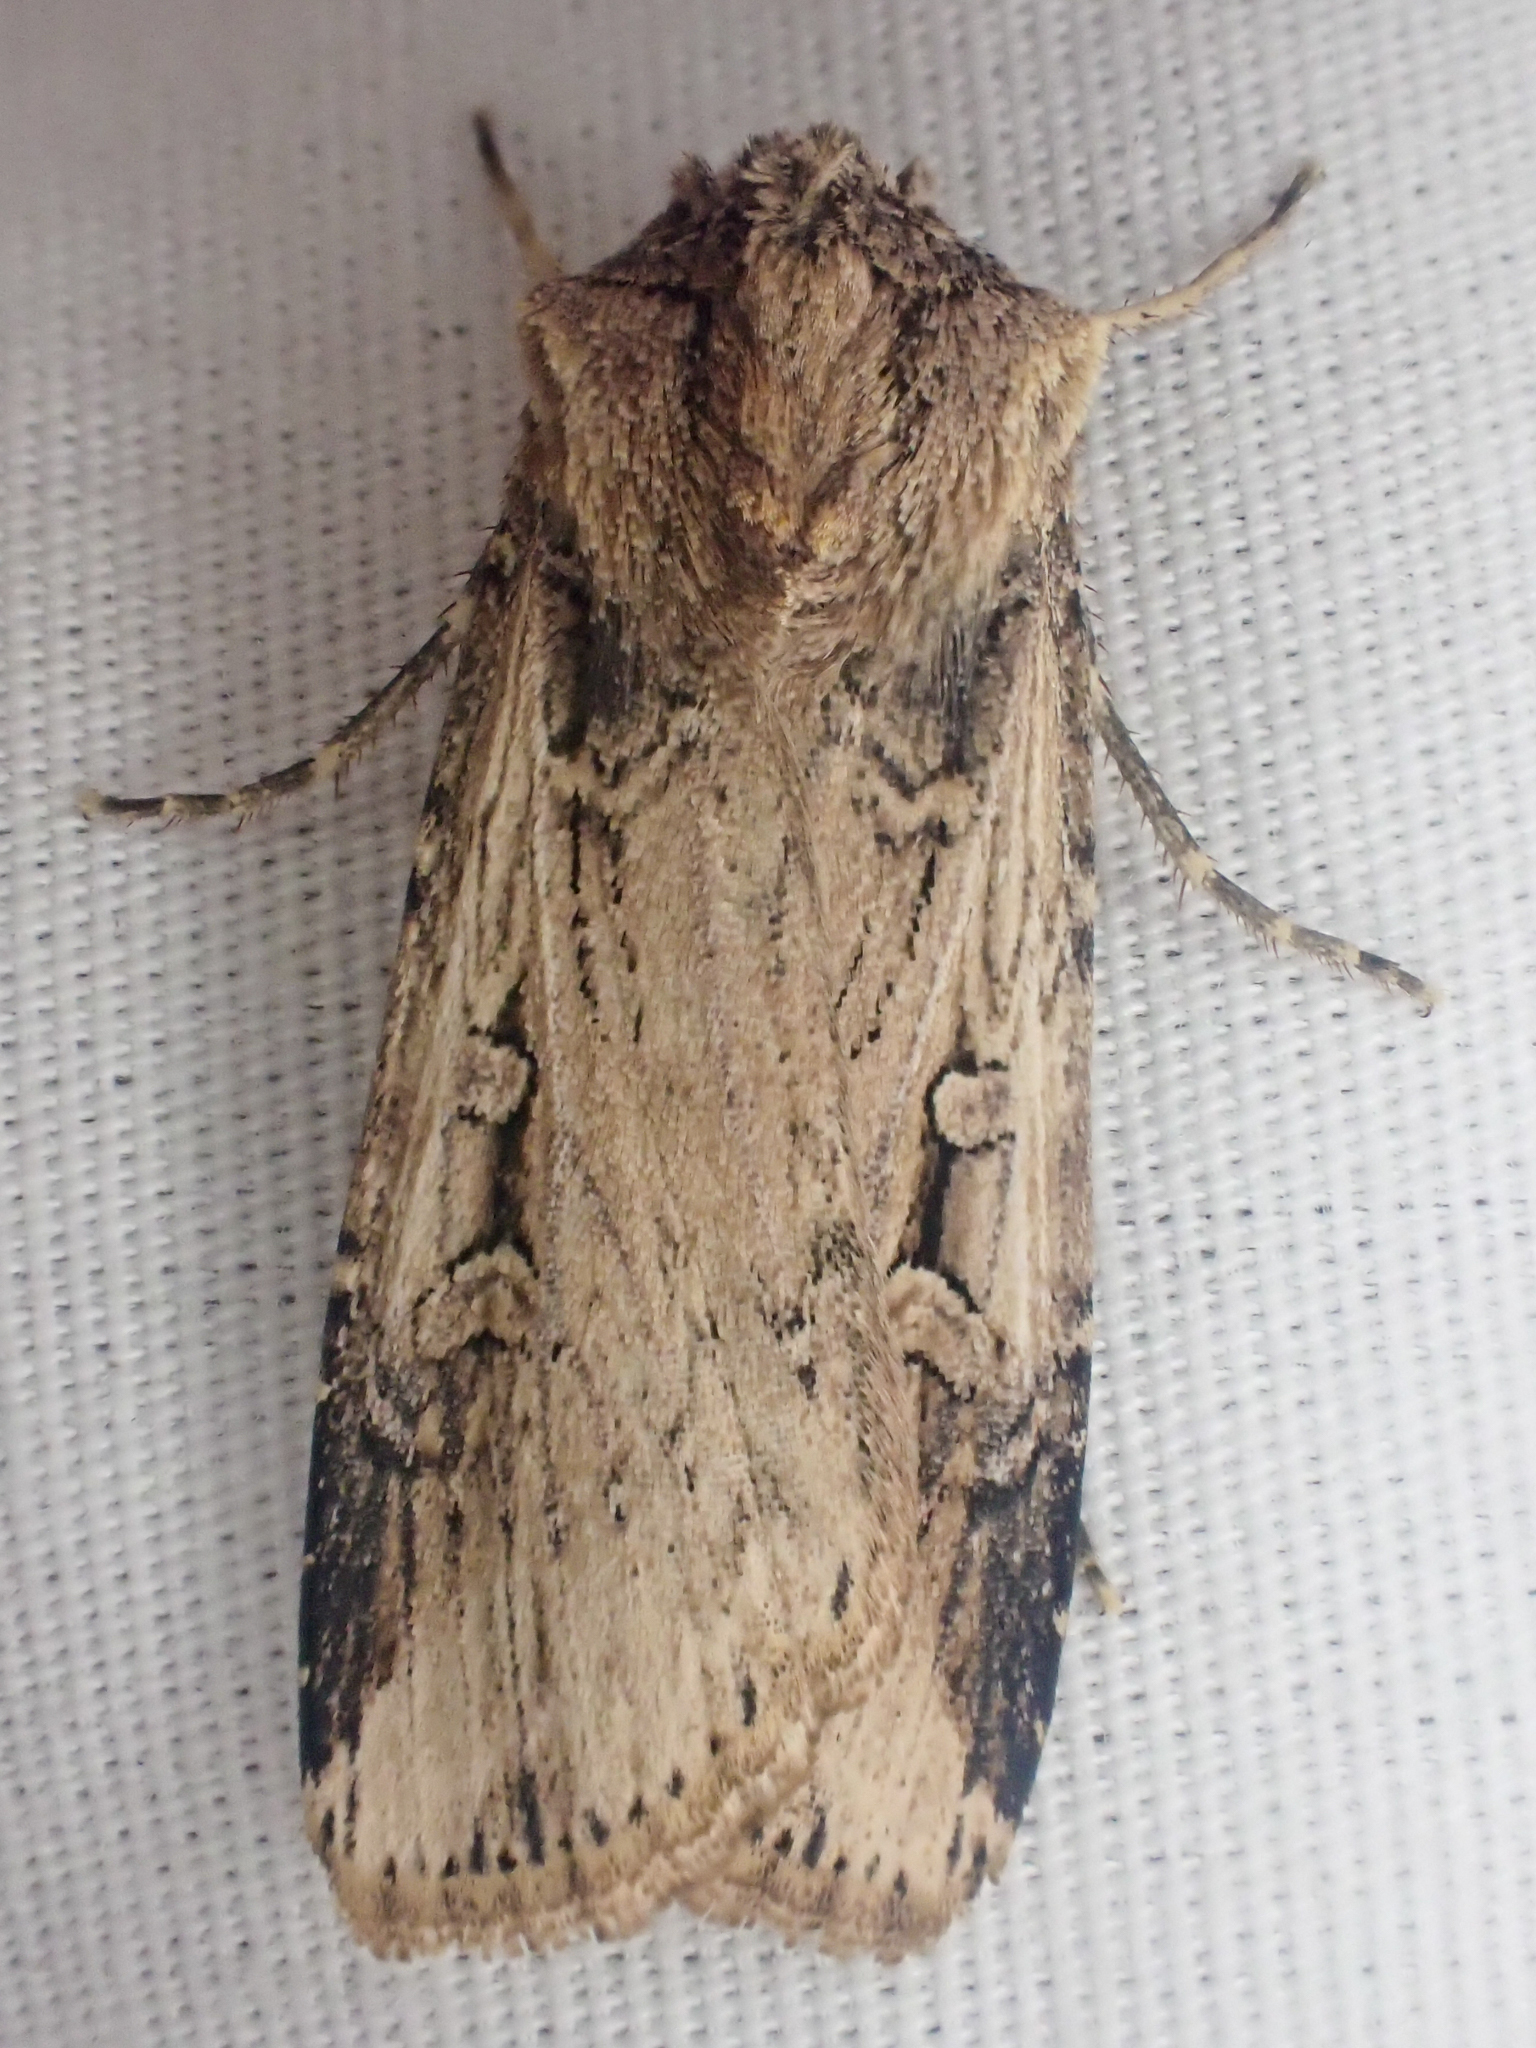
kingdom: Animalia
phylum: Arthropoda
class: Insecta
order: Lepidoptera
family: Noctuidae
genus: Feltia
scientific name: Feltia subterranea
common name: Granulate cutworm
